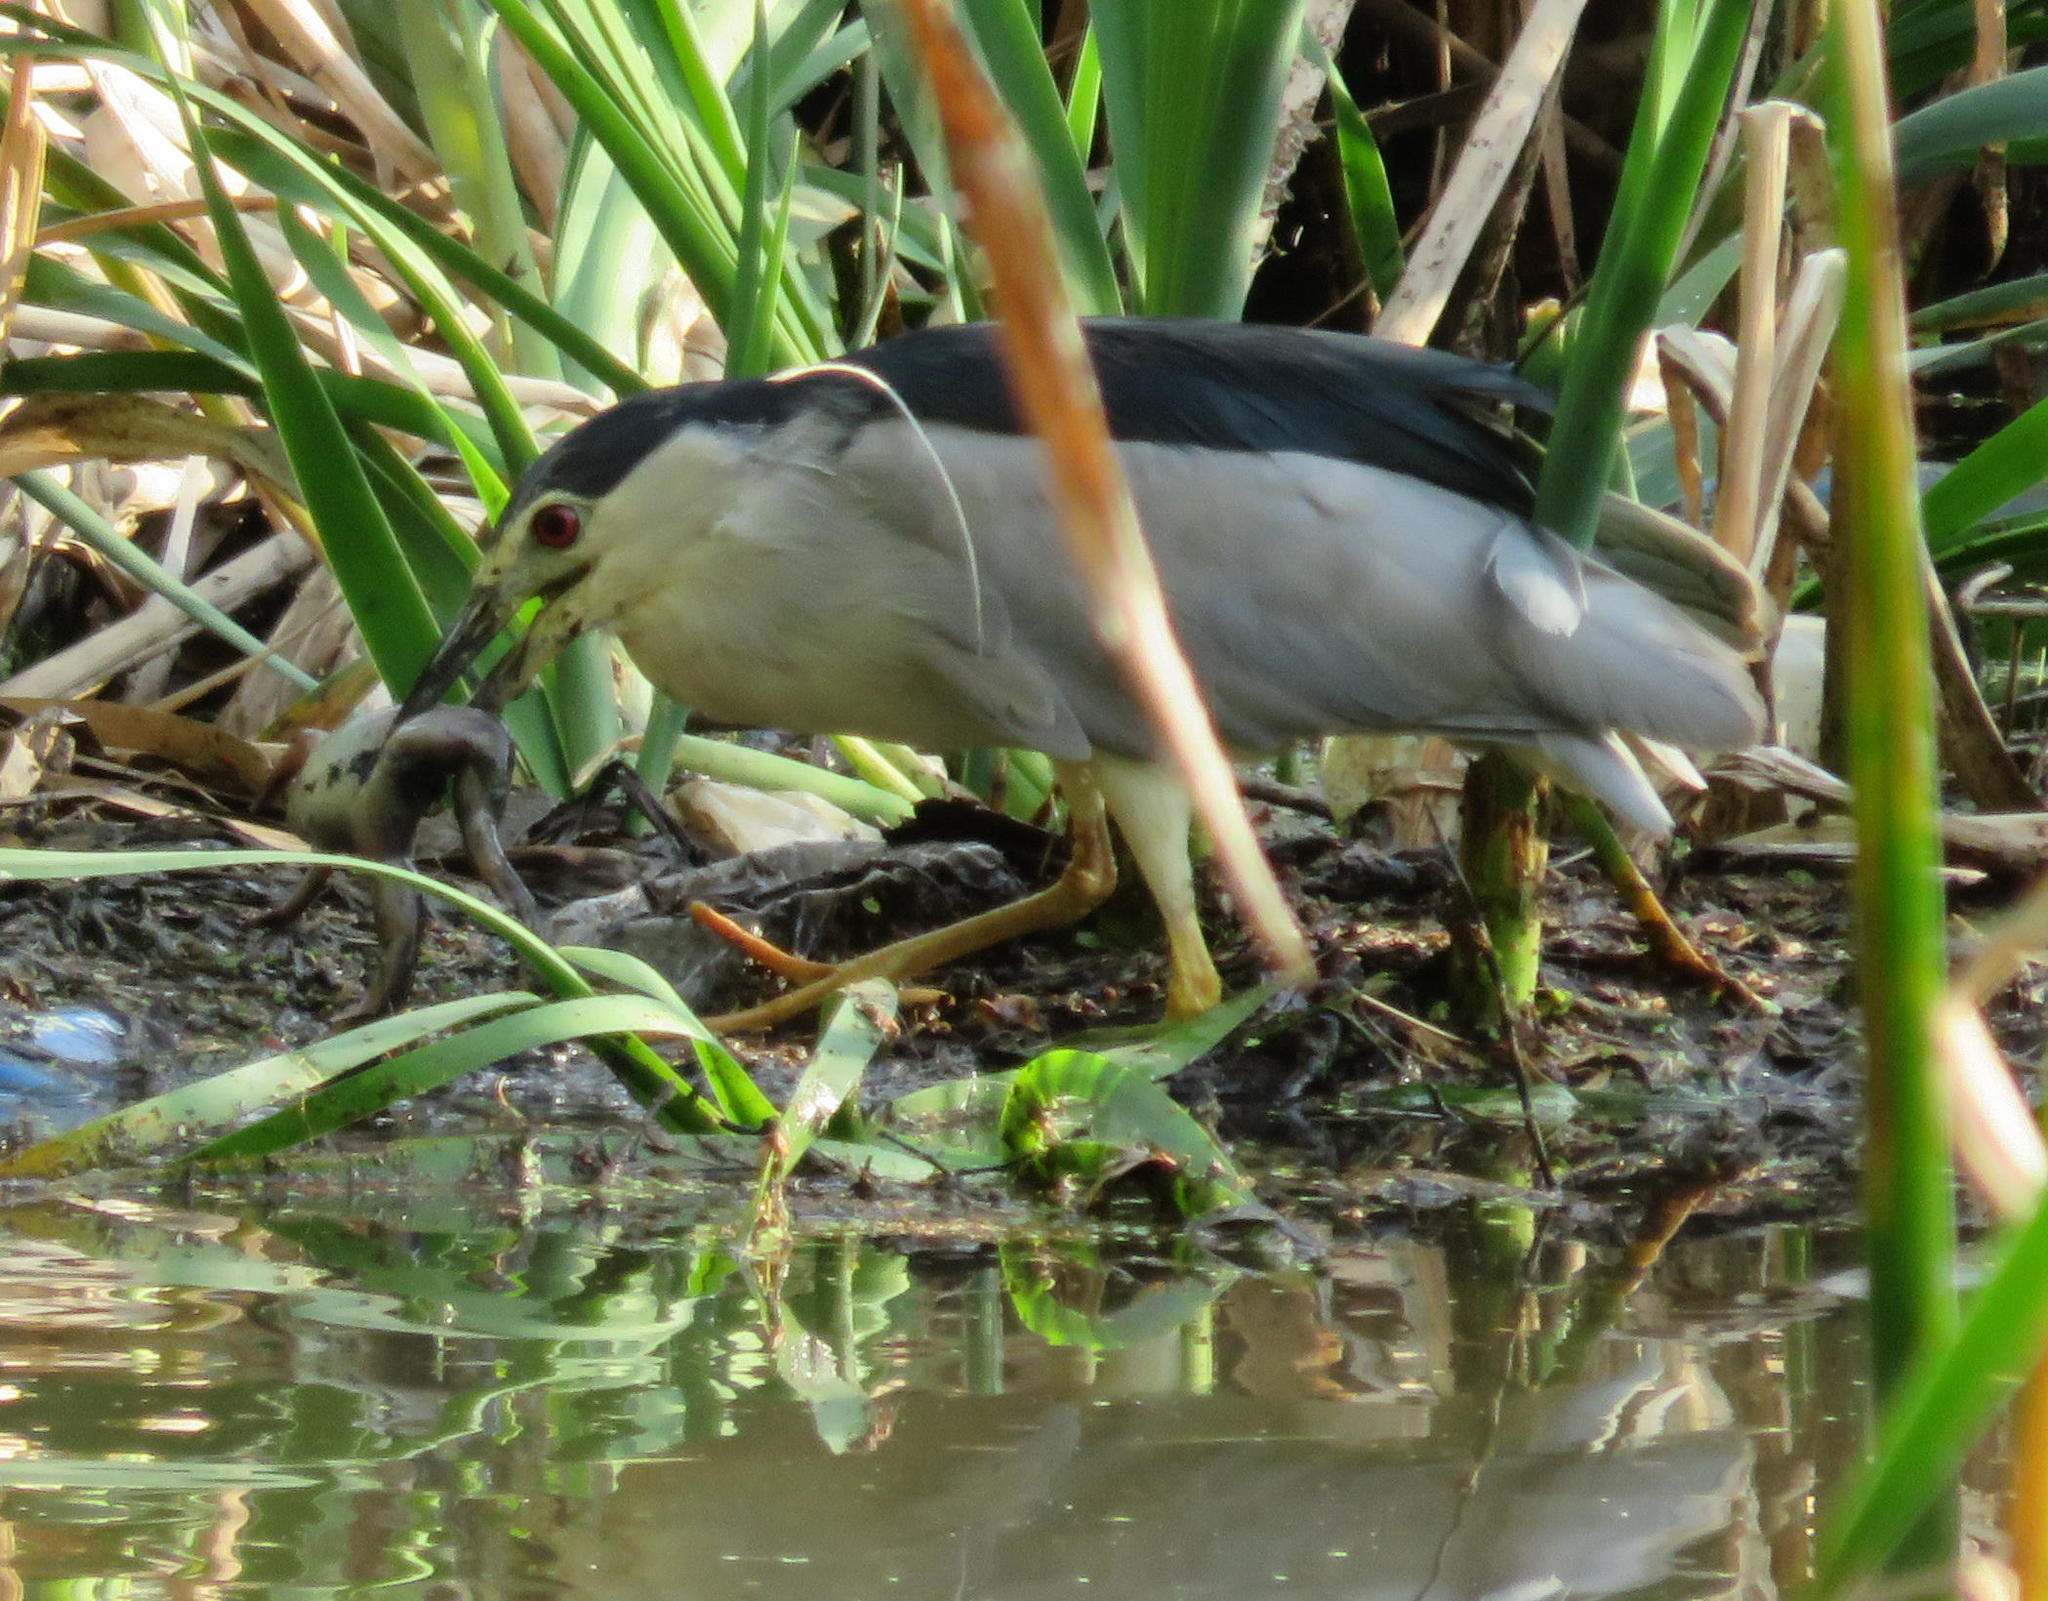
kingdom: Animalia
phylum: Chordata
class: Aves
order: Pelecaniformes
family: Ardeidae
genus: Nycticorax
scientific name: Nycticorax nycticorax
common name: Black-crowned night heron
